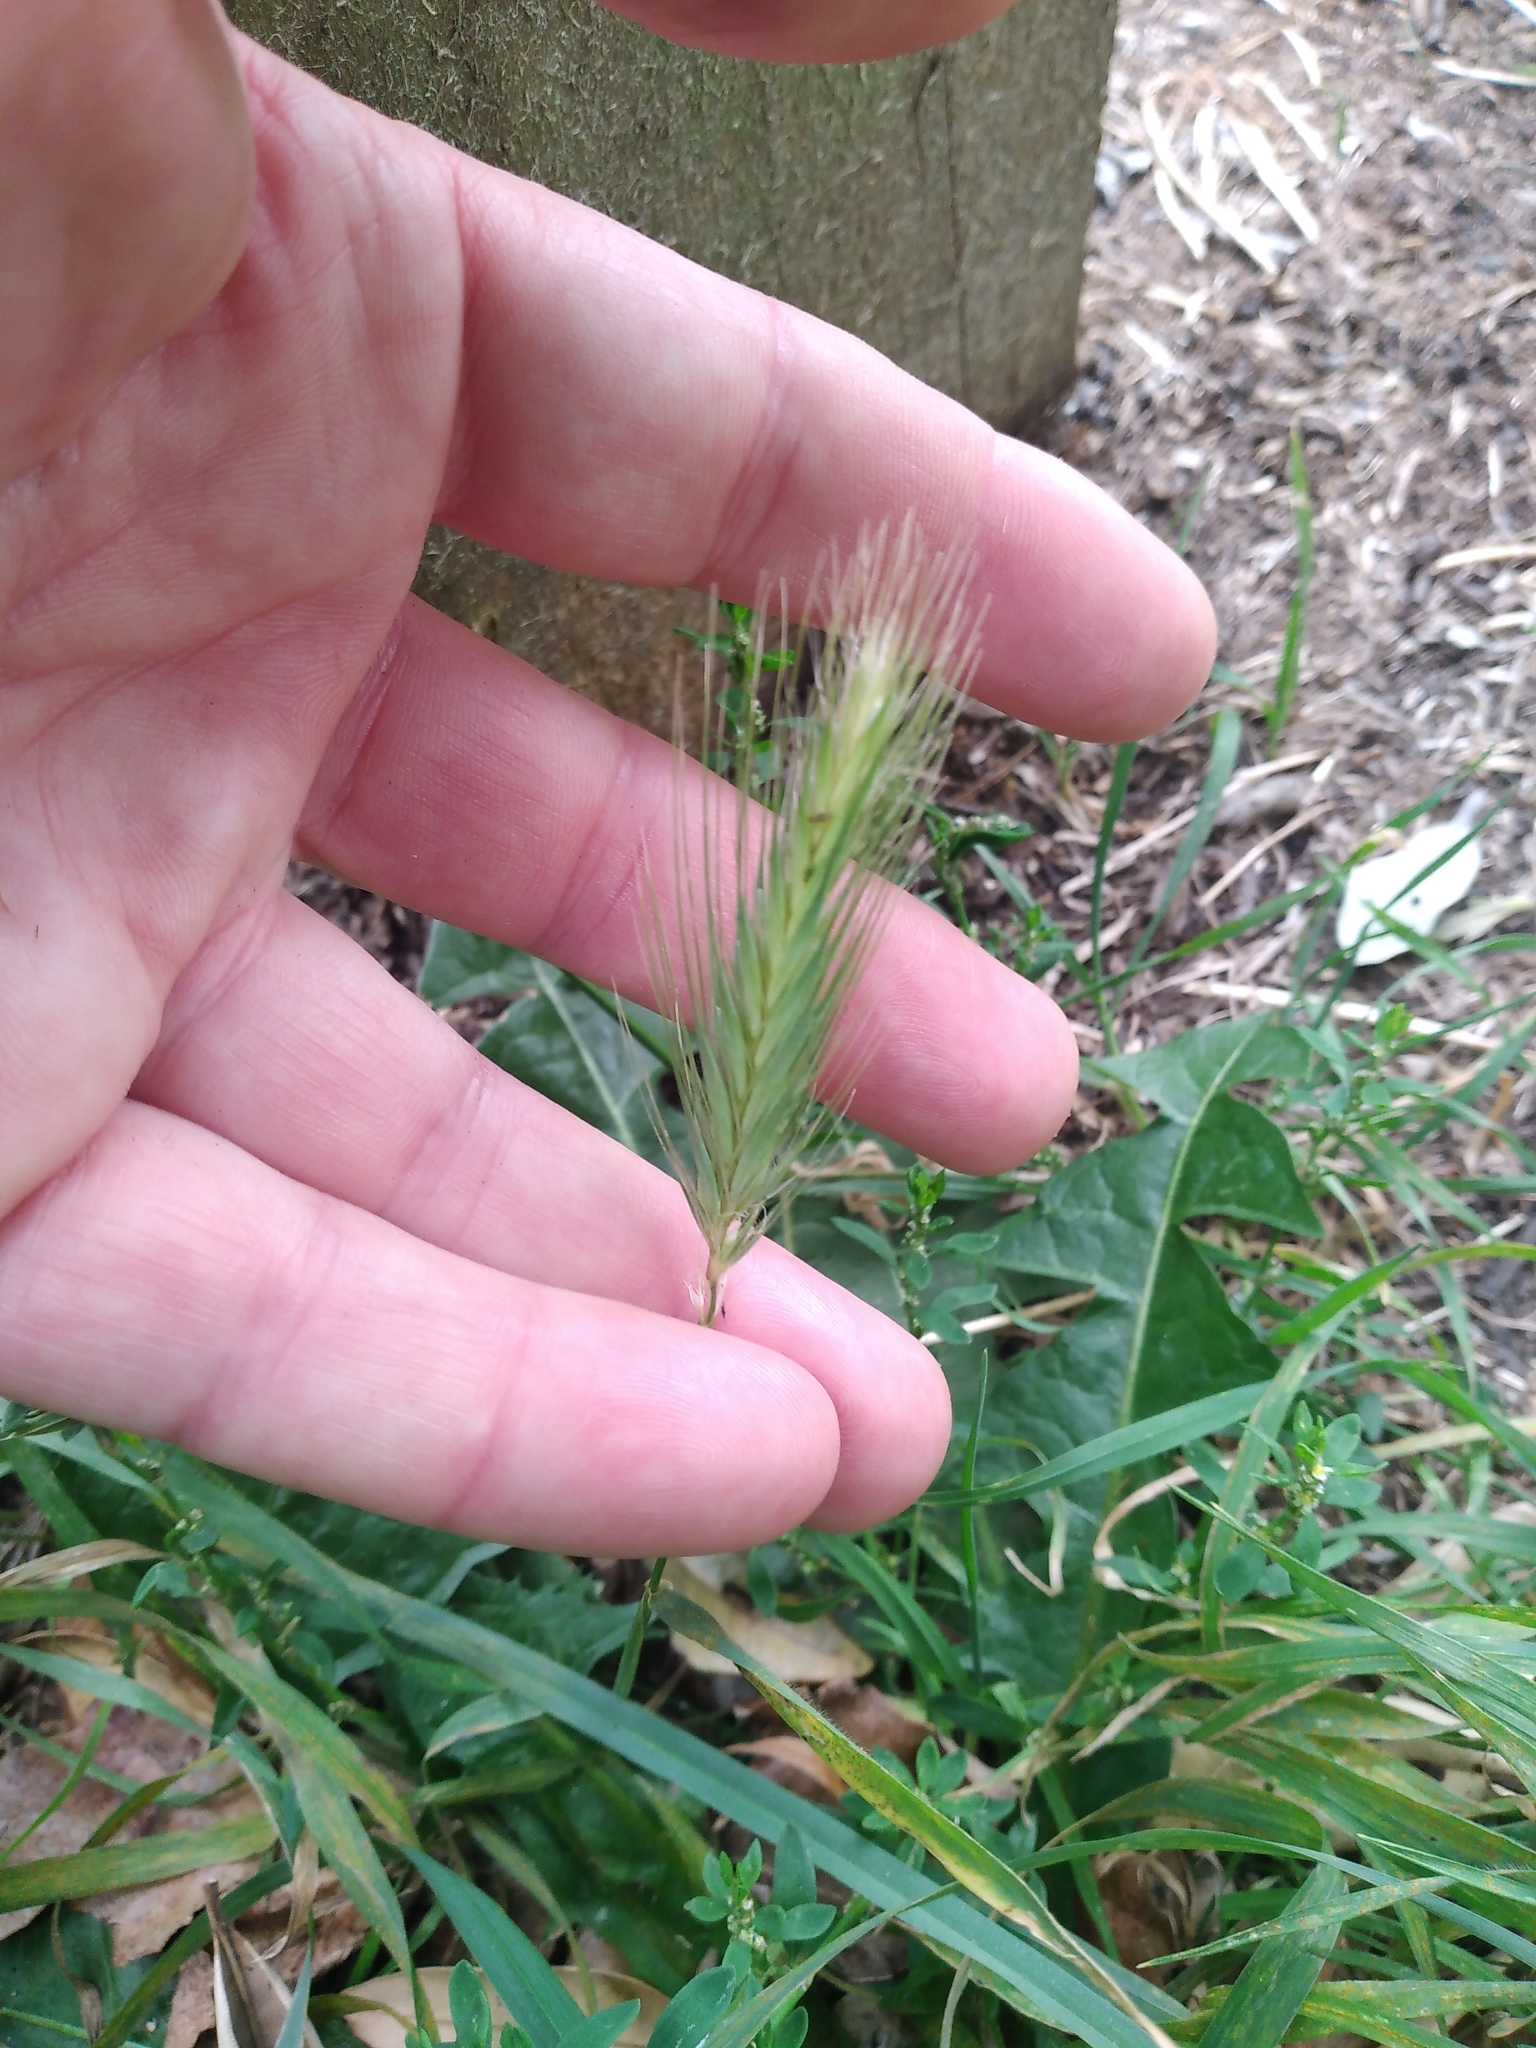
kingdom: Plantae
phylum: Tracheophyta
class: Liliopsida
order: Poales
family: Poaceae
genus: Hordeum
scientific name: Hordeum murinum
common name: Wall barley
